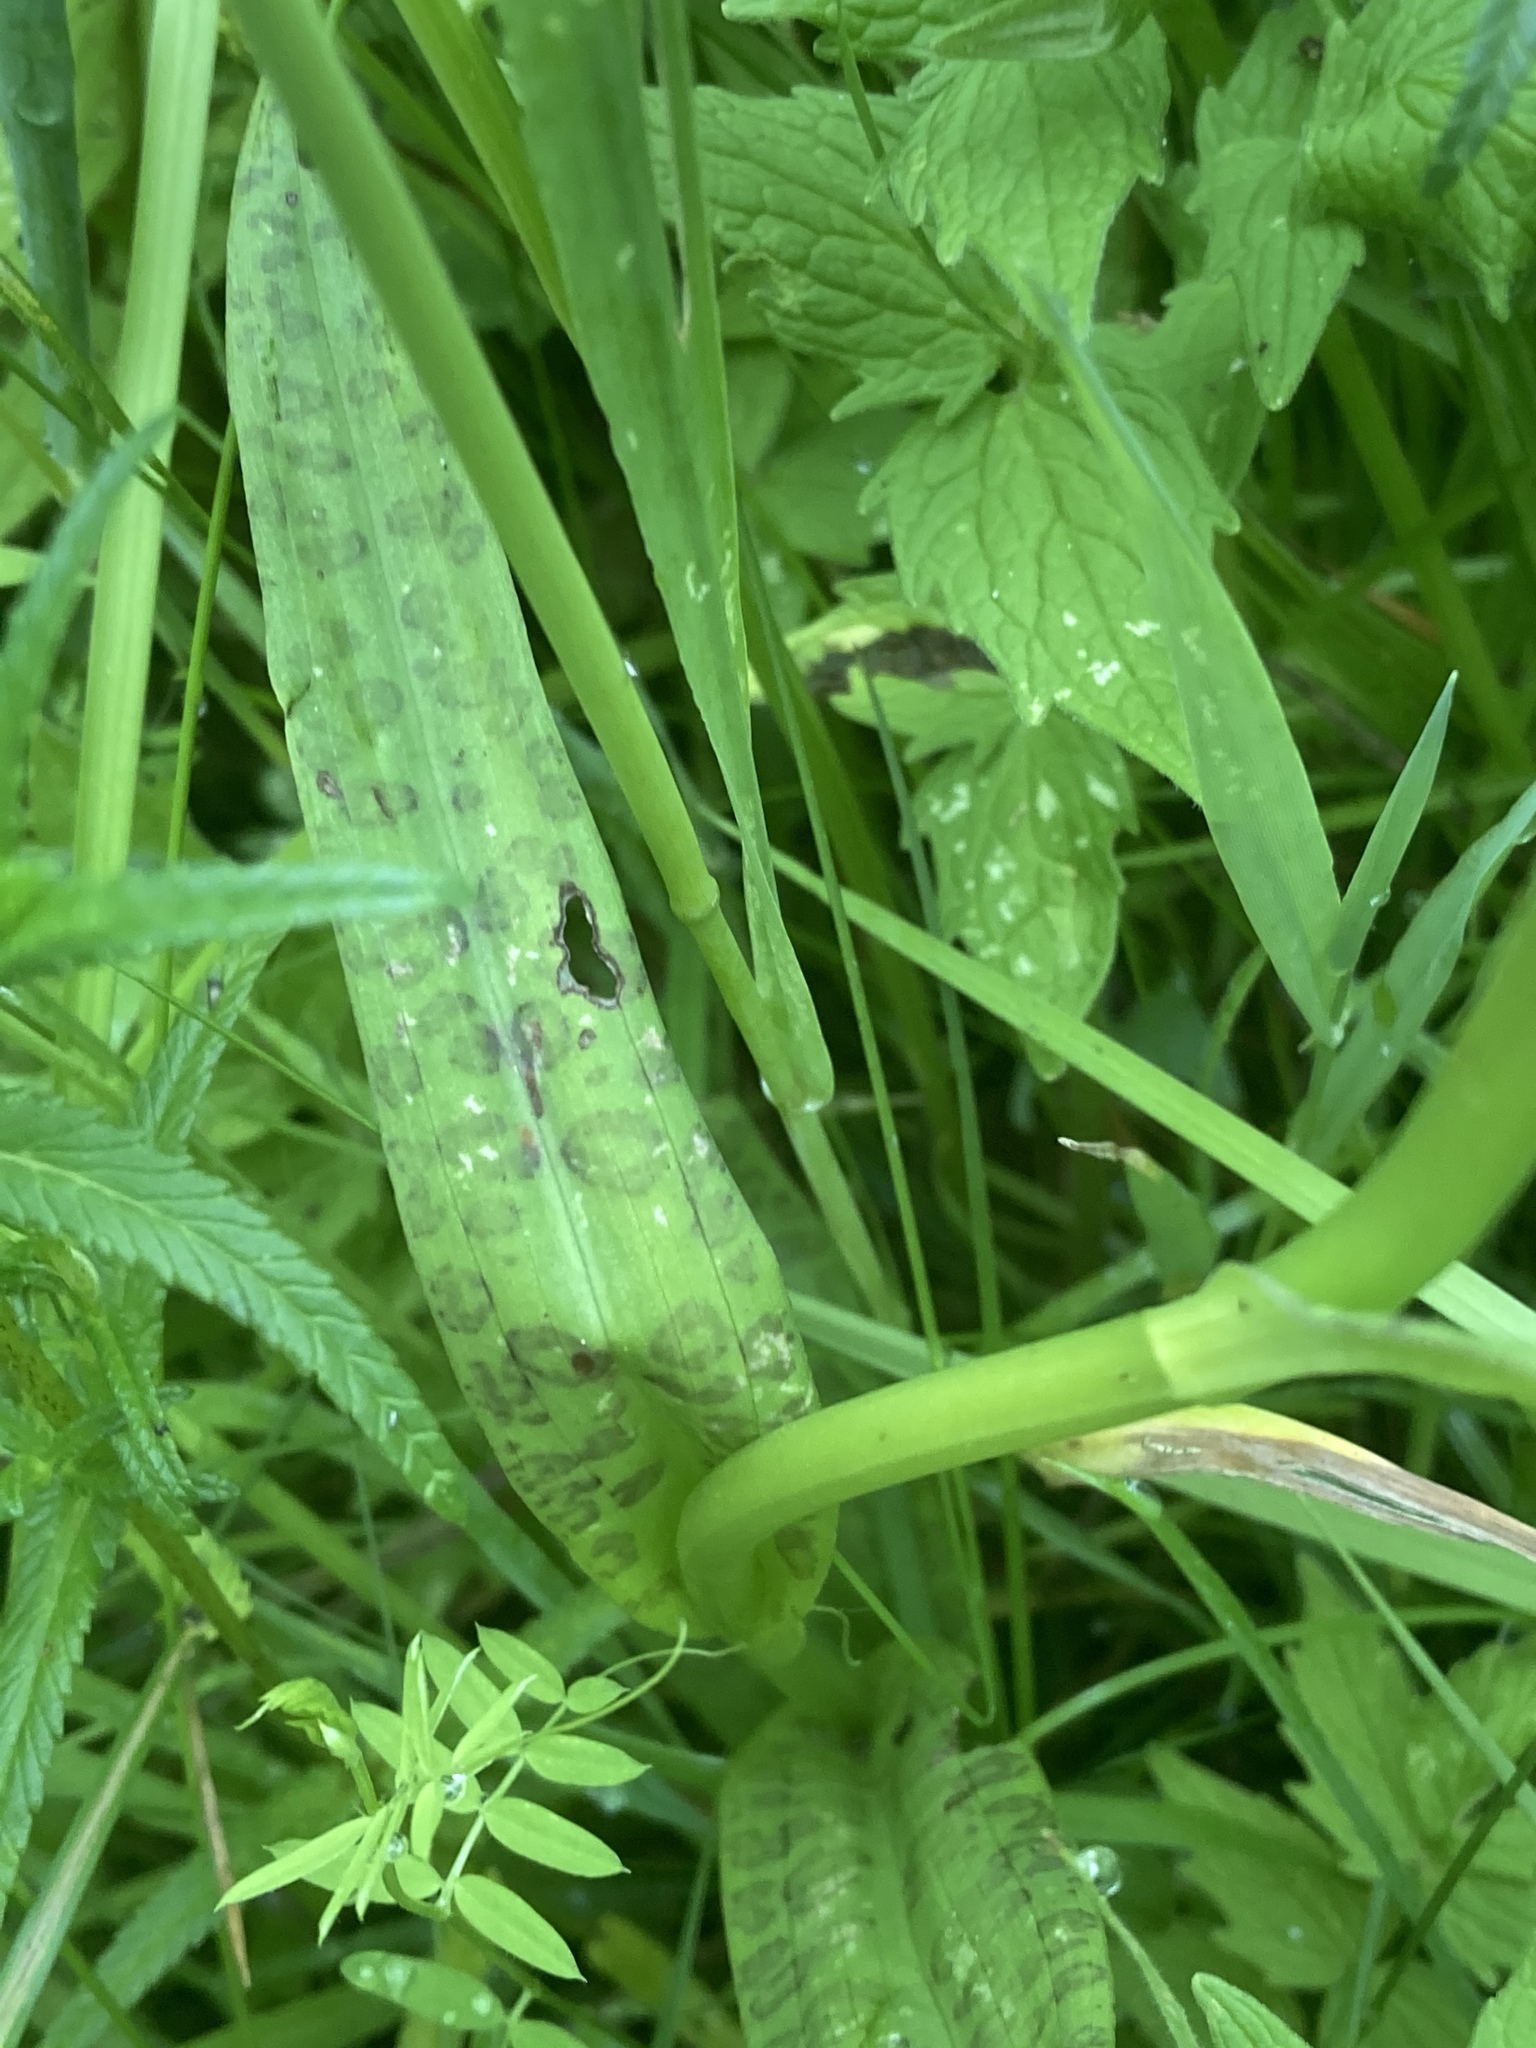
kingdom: Plantae
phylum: Tracheophyta
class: Liliopsida
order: Asparagales
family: Orchidaceae
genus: Dactylorhiza
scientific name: Dactylorhiza majalis
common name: Marsh orchid
